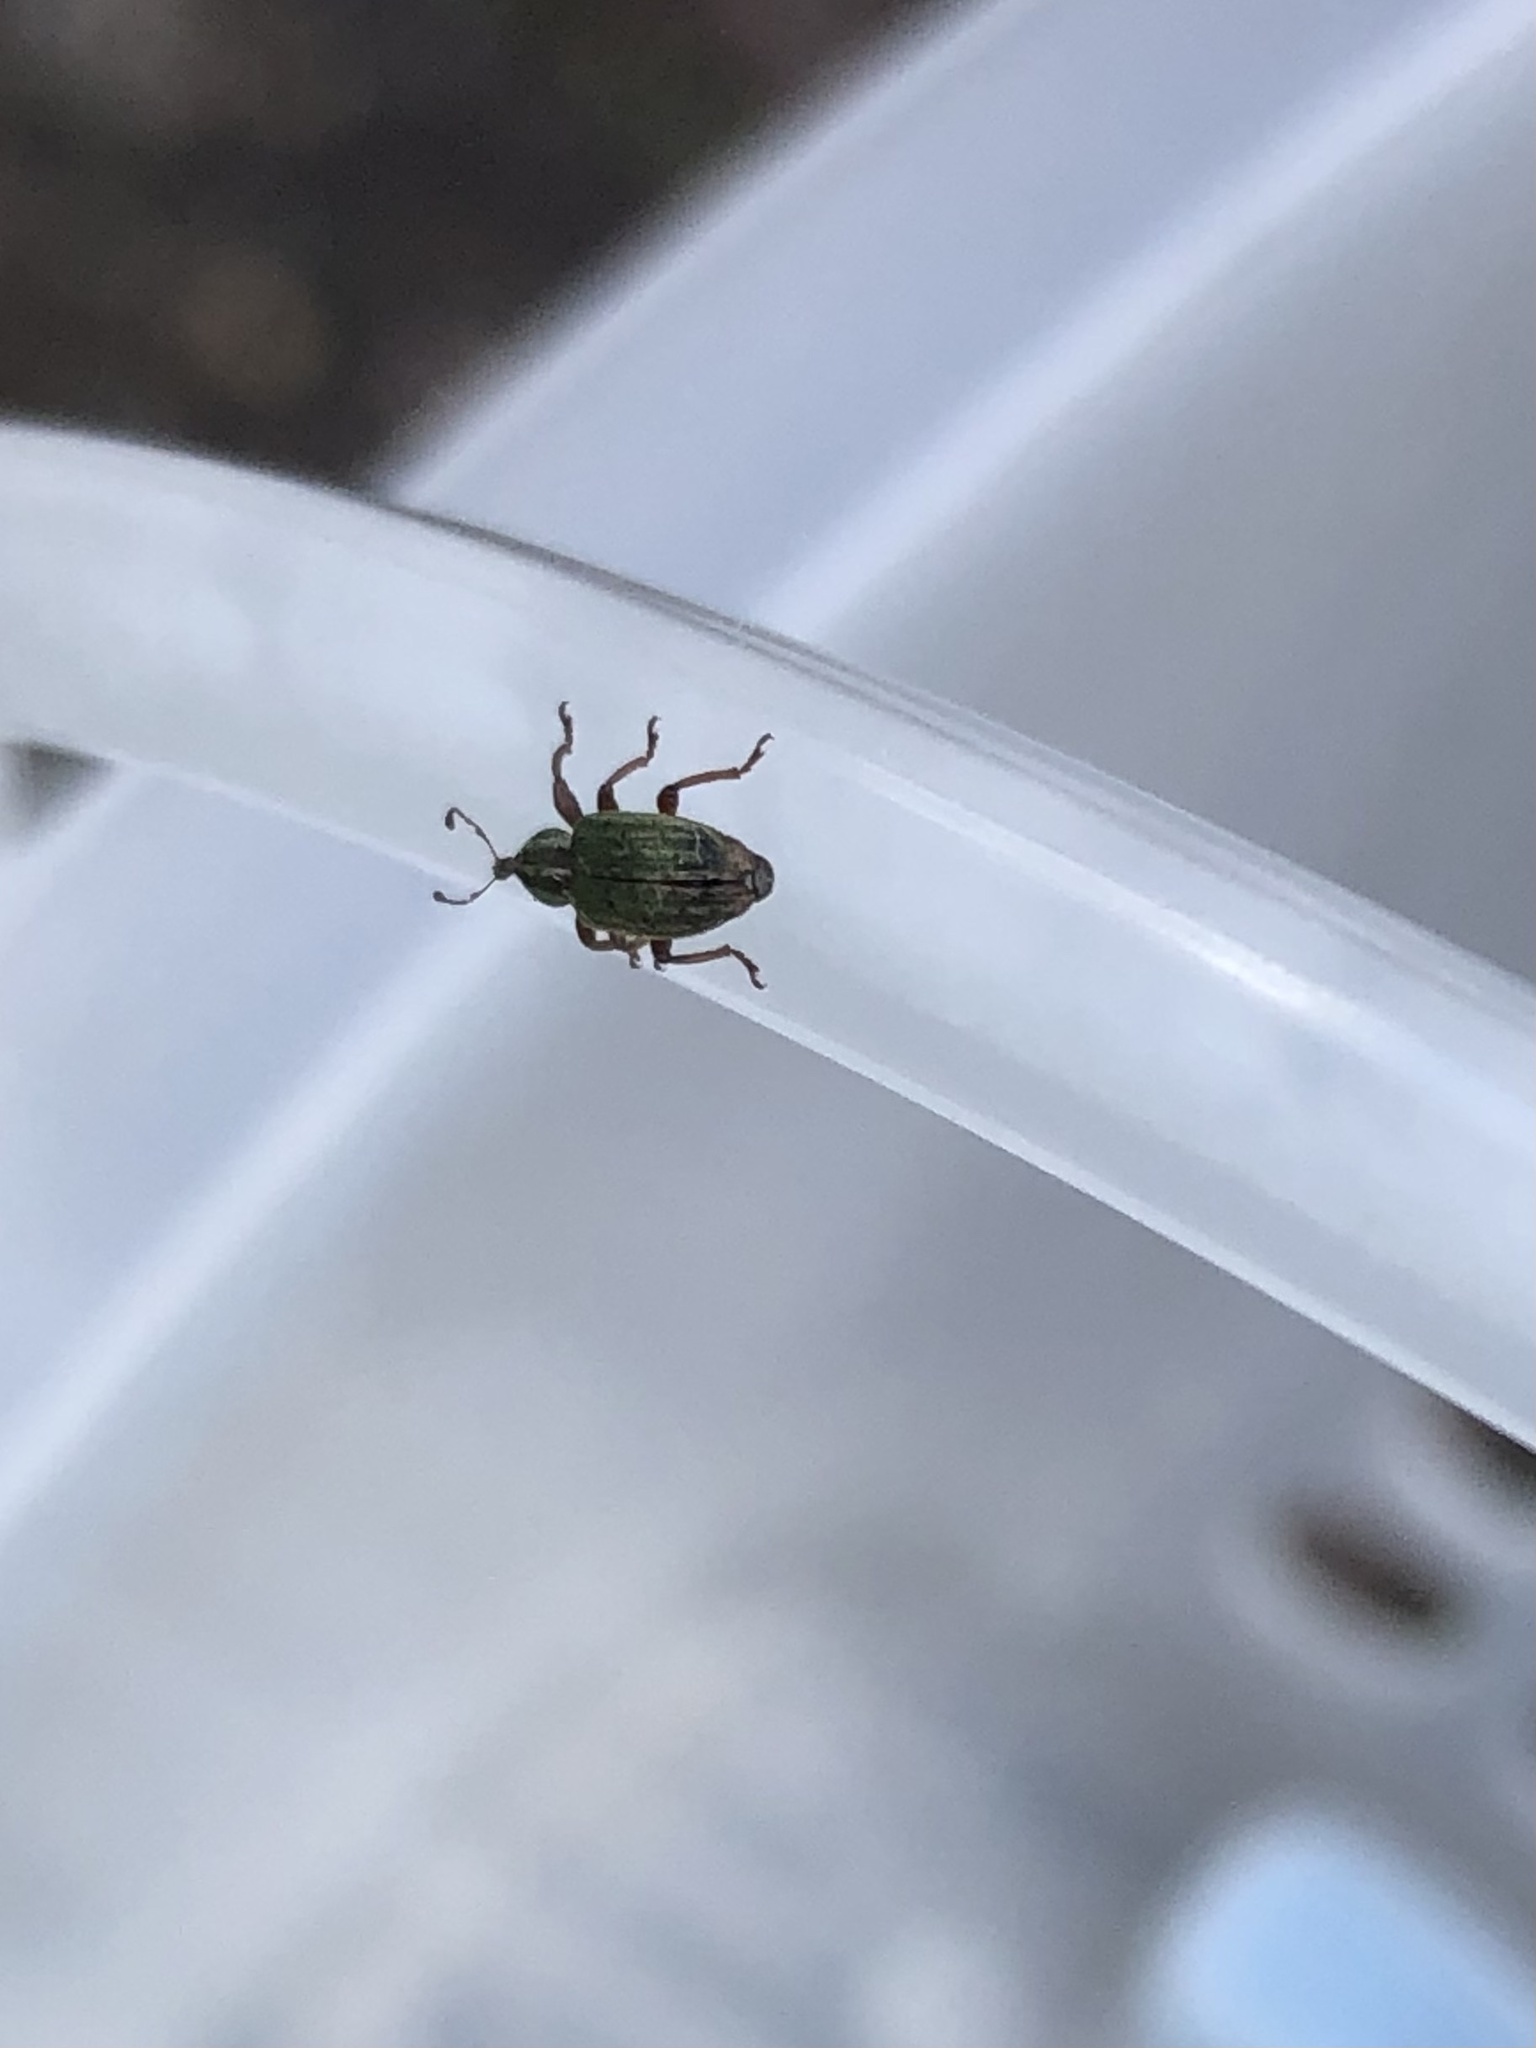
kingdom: Animalia
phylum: Arthropoda
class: Insecta
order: Coleoptera
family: Curculionidae
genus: Hypera
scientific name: Hypera nigrirostris
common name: Black-beaked green weevil
